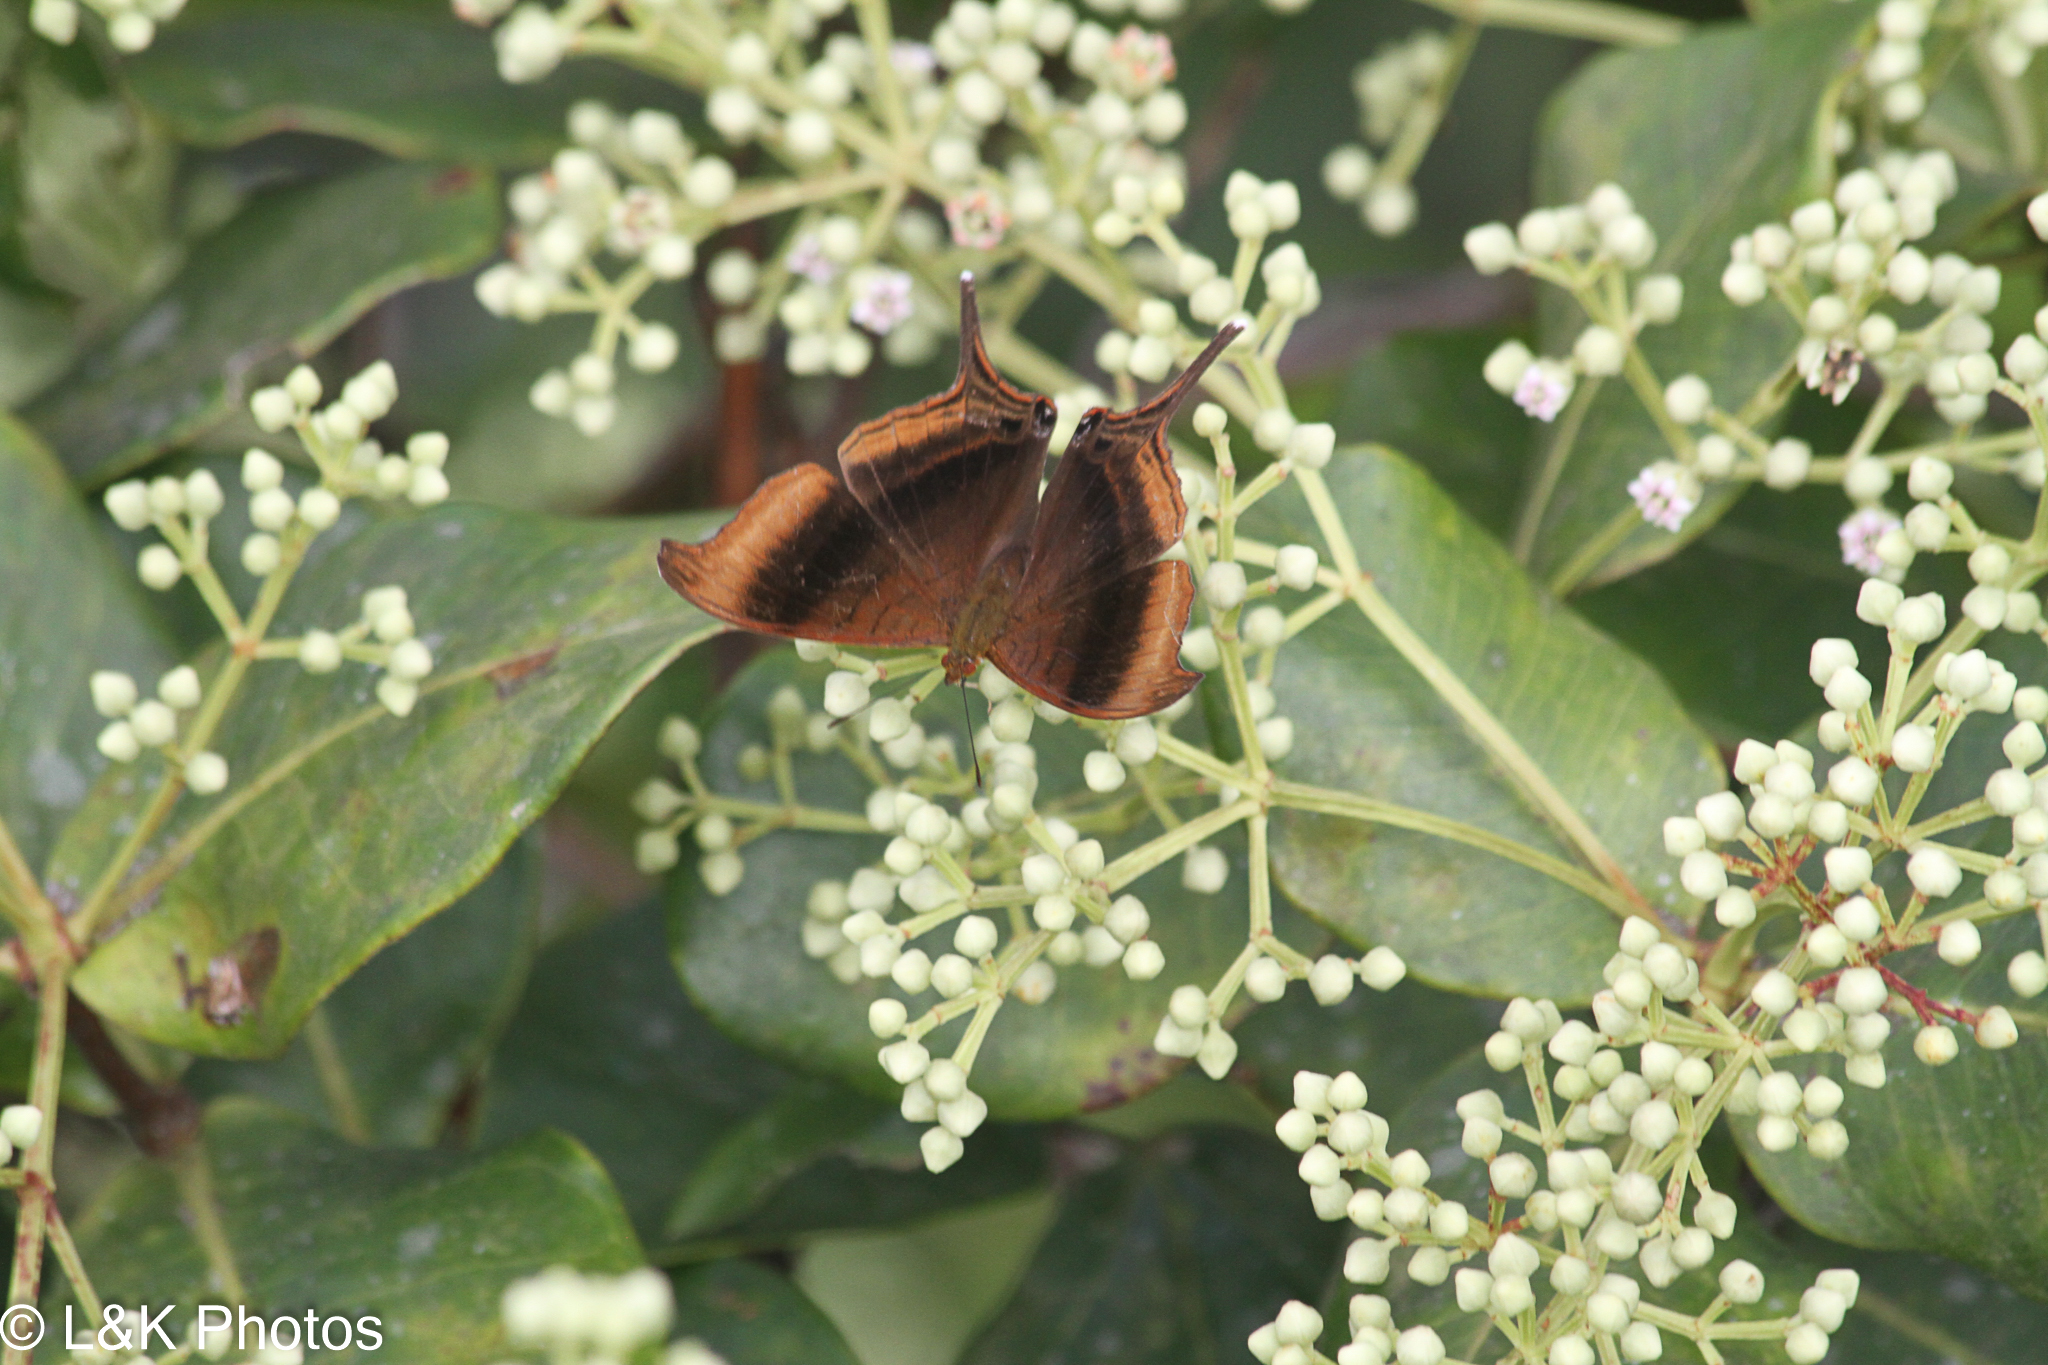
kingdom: Animalia
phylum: Arthropoda
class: Insecta
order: Lepidoptera
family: Nymphalidae
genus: Marpesia
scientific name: Marpesia zerynthia
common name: Waiter daggerwing
